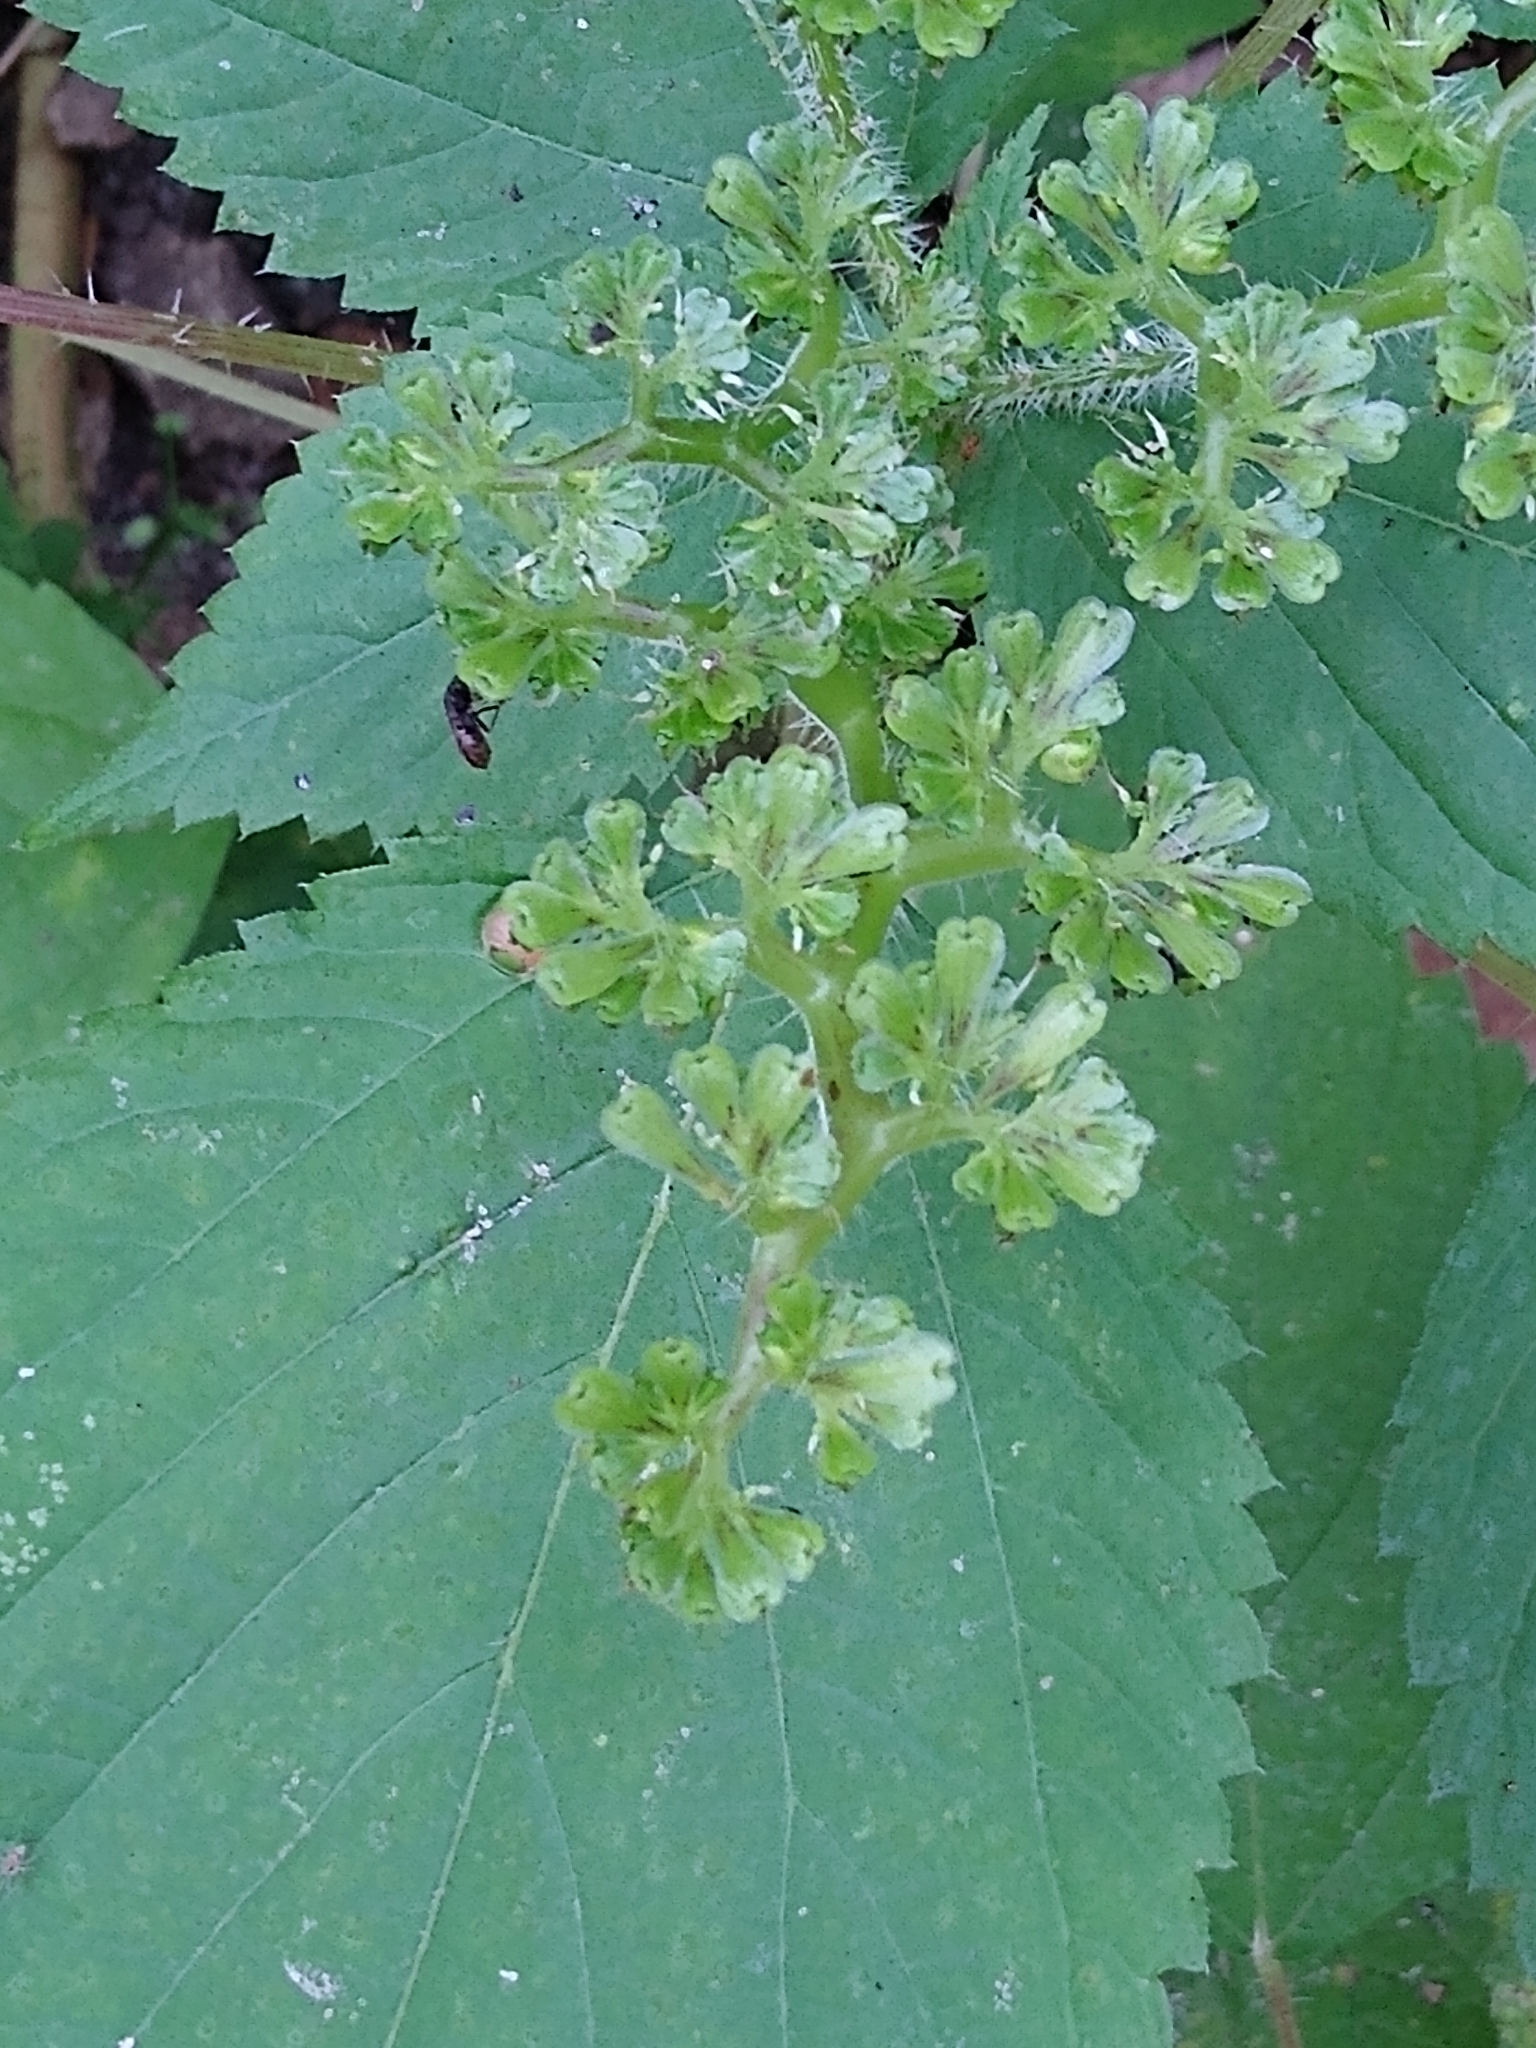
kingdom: Plantae
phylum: Tracheophyta
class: Magnoliopsida
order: Rosales
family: Urticaceae
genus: Laportea
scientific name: Laportea canadensis
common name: Canada nettle
